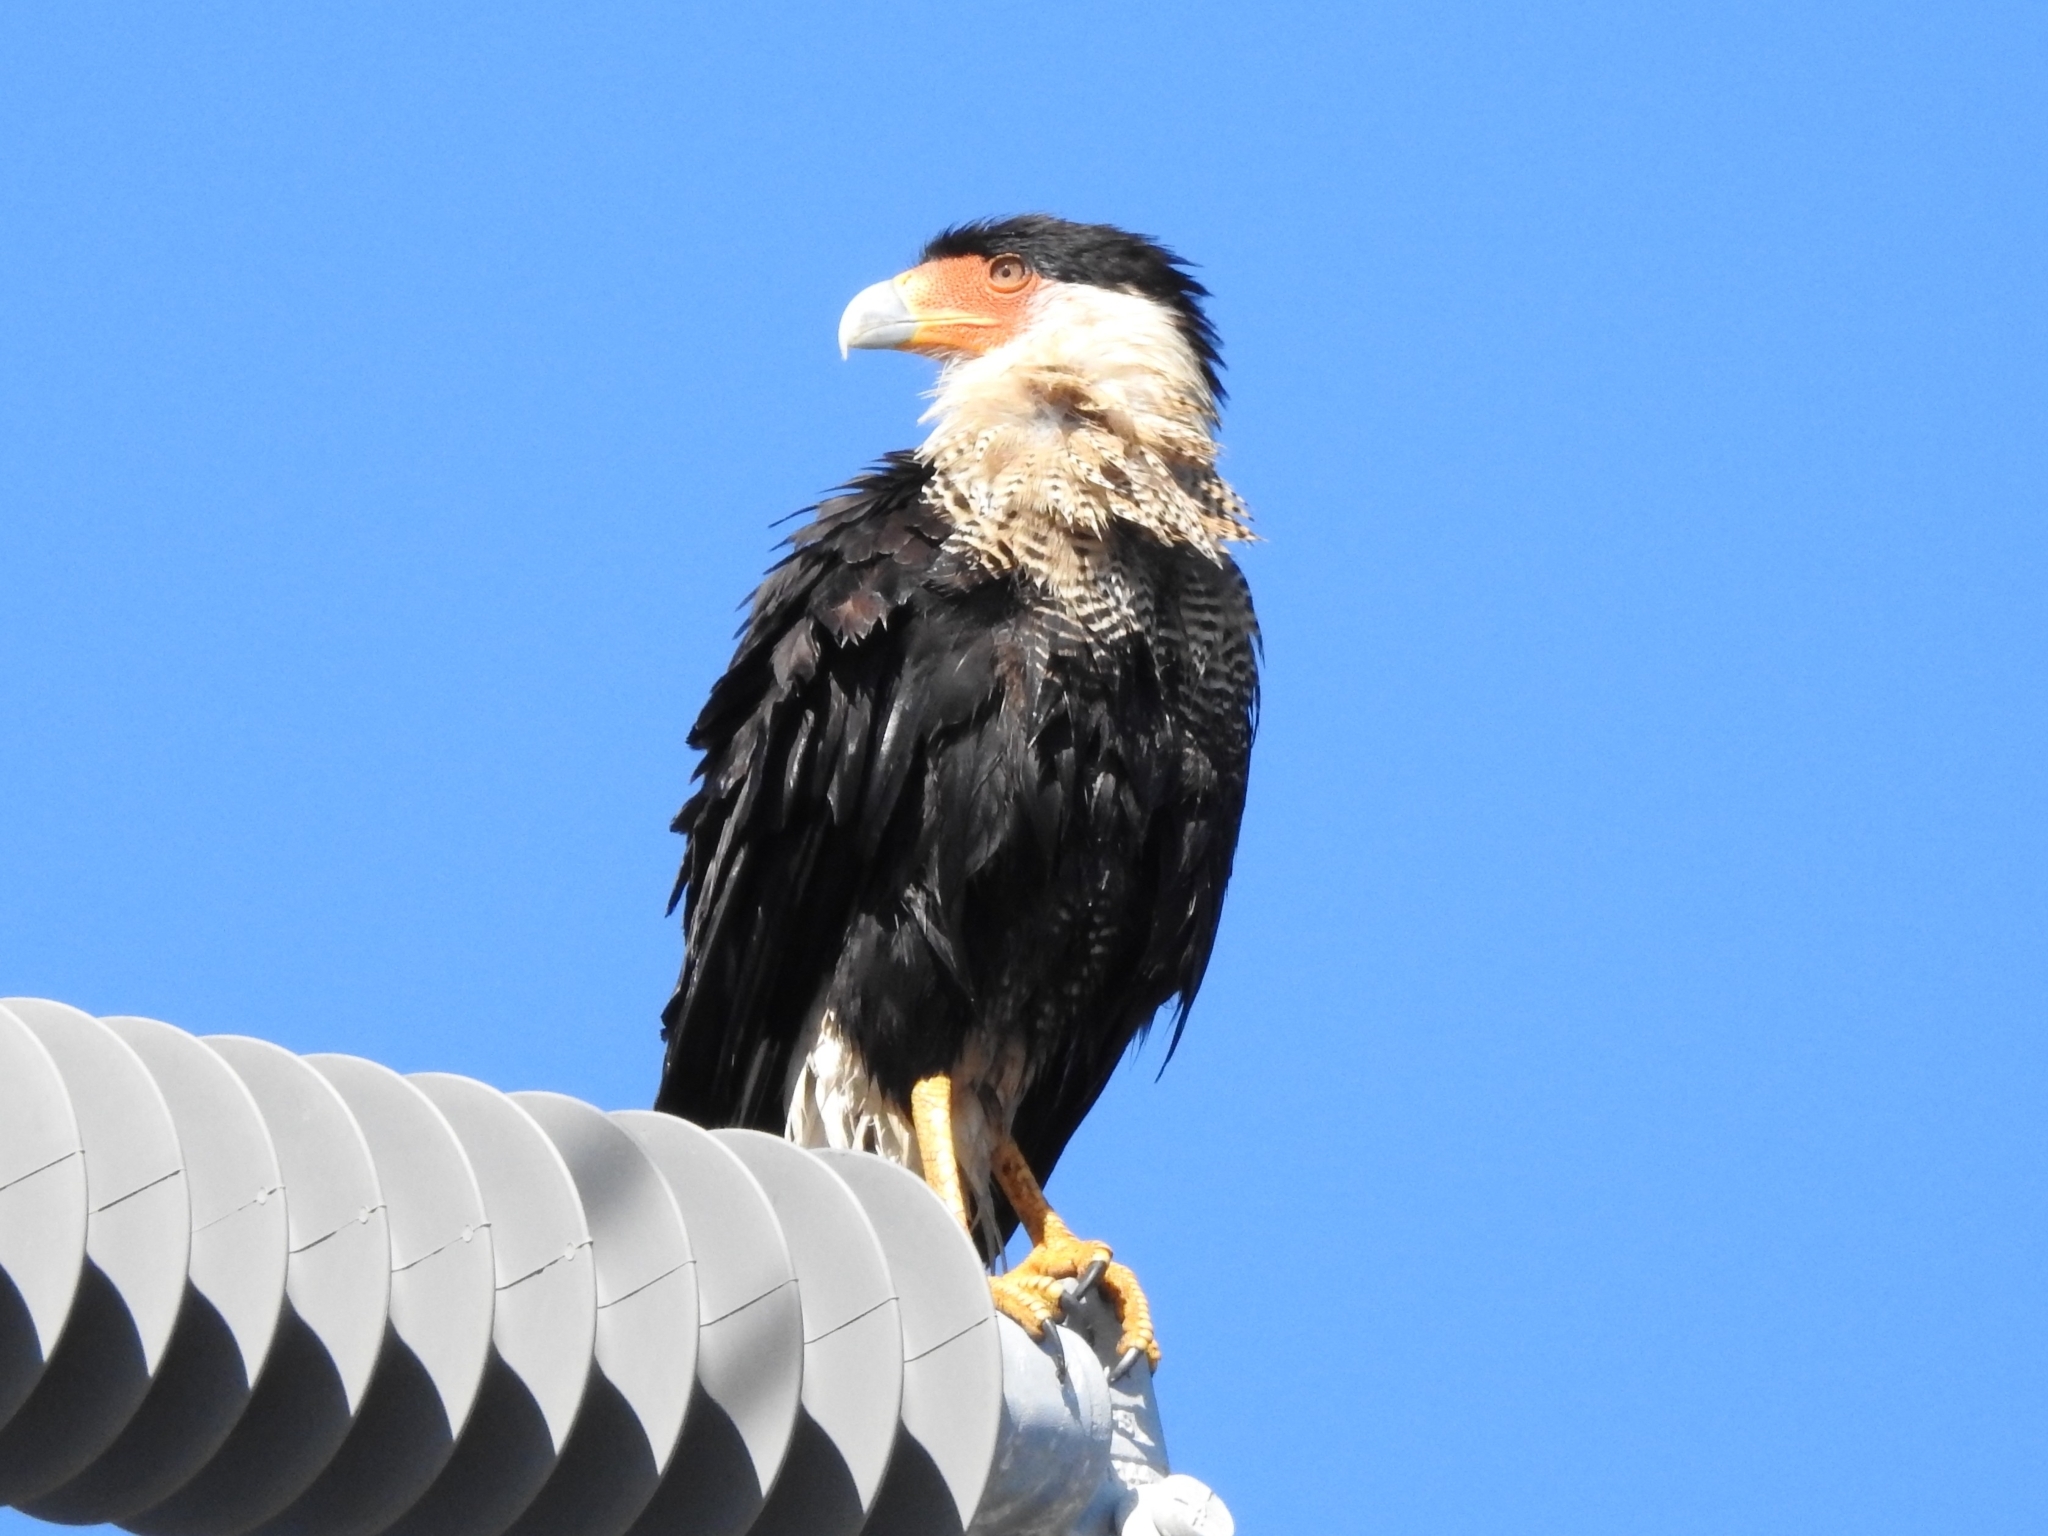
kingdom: Animalia
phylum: Chordata
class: Aves
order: Falconiformes
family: Falconidae
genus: Caracara
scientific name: Caracara plancus
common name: Southern caracara
